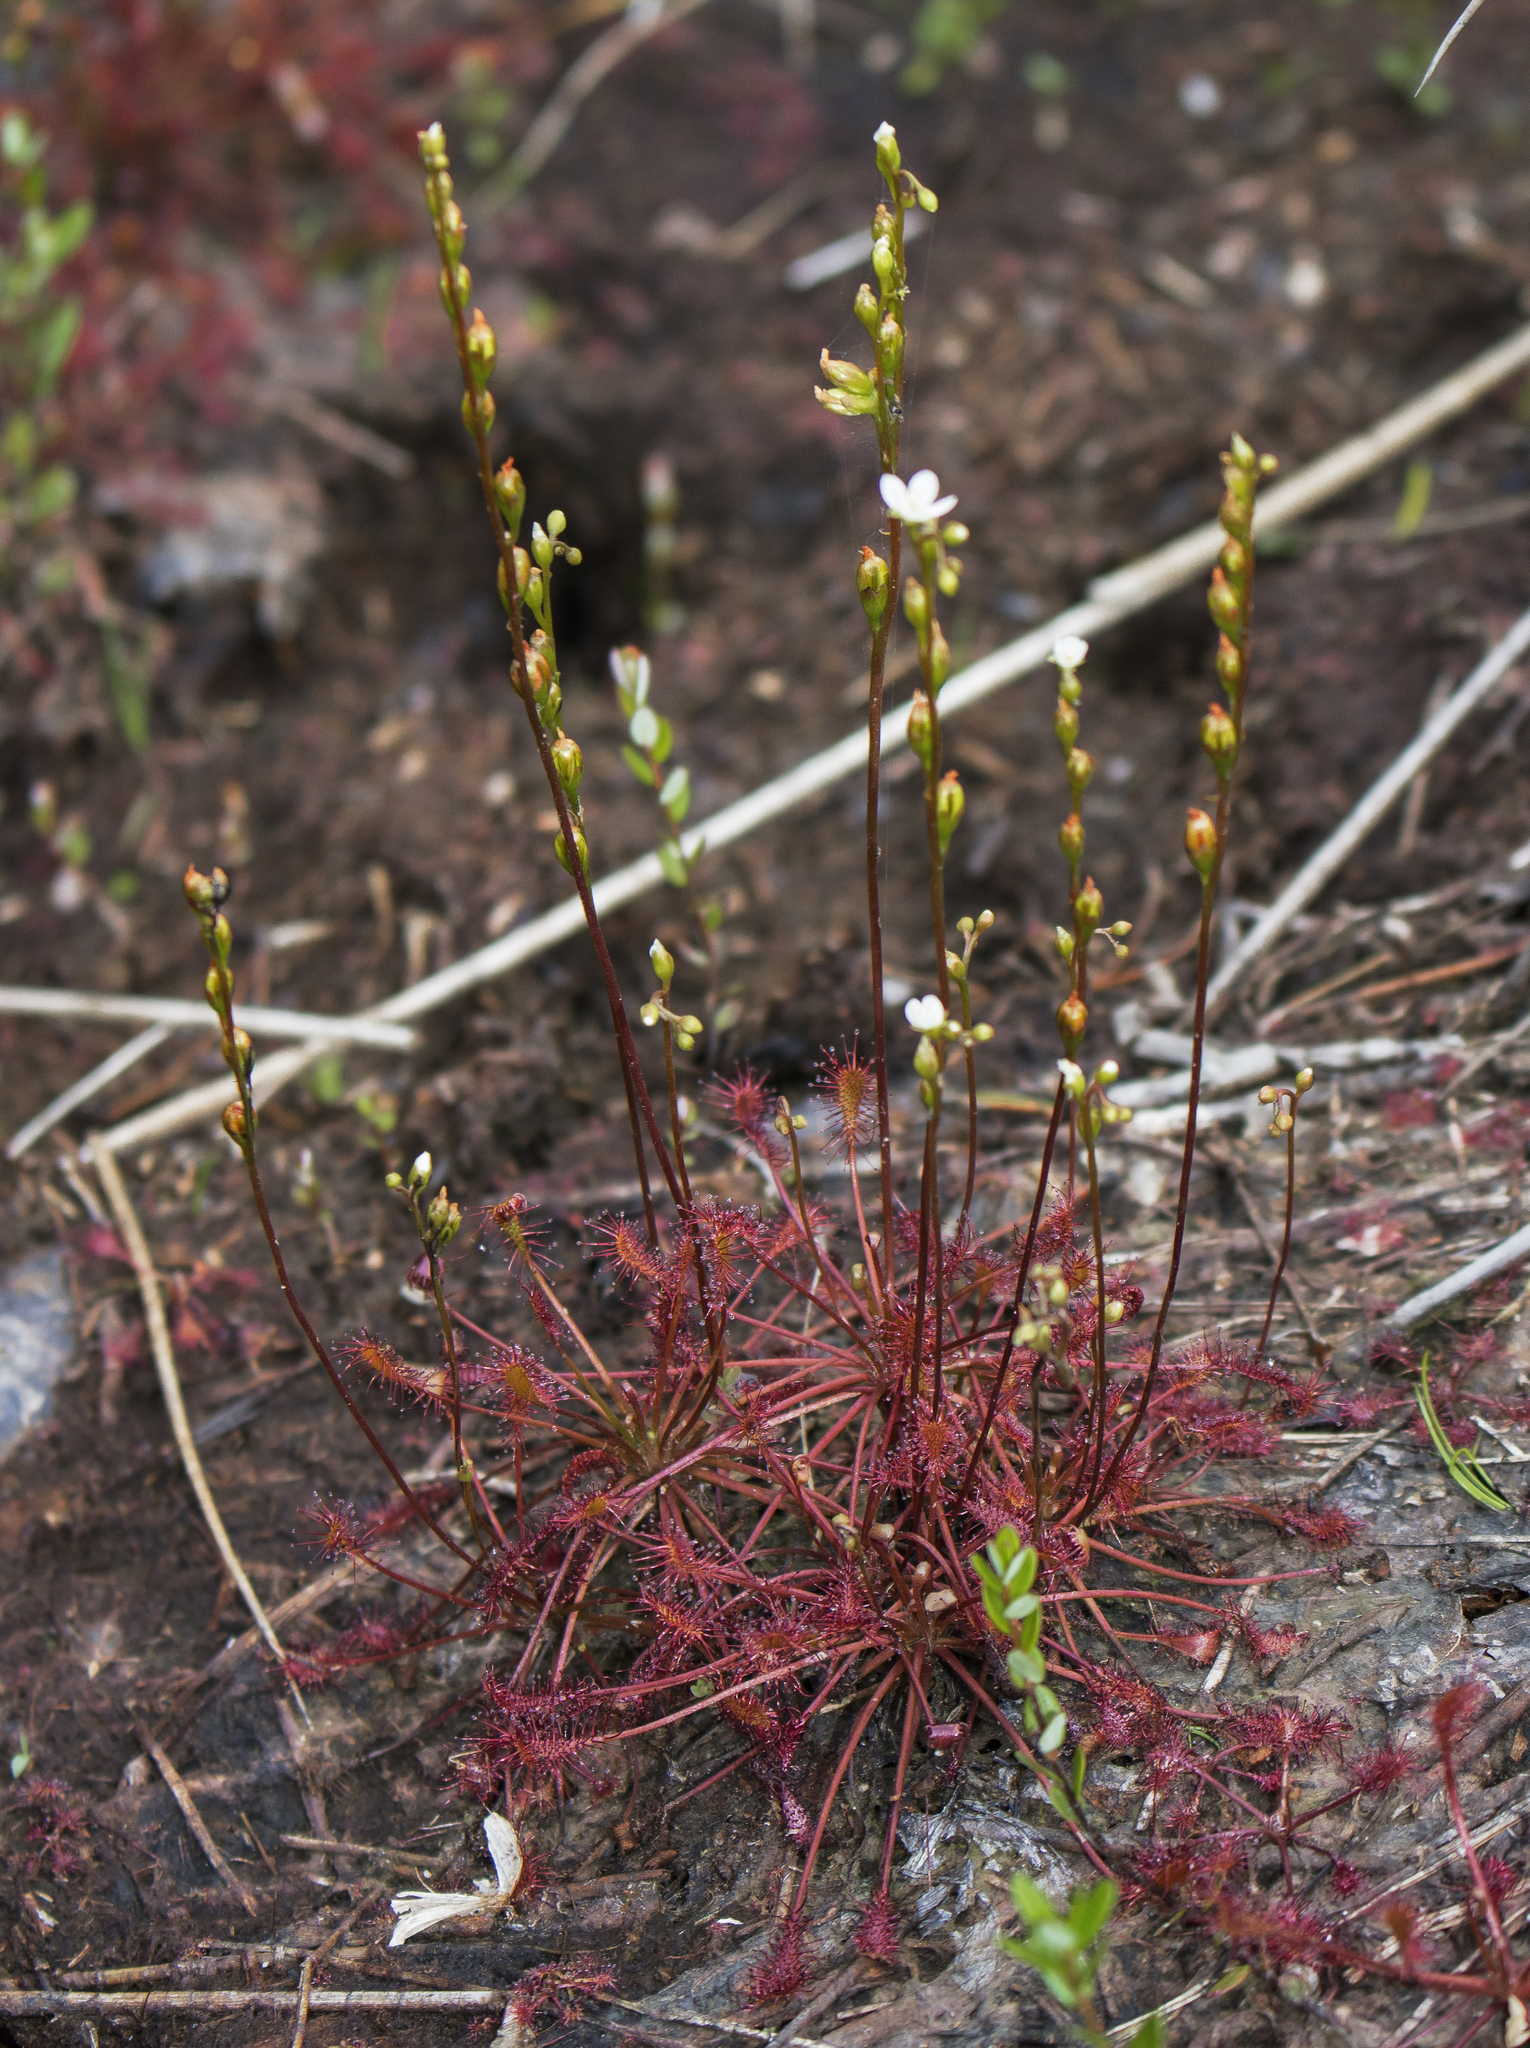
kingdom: Plantae
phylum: Tracheophyta
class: Magnoliopsida
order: Caryophyllales
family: Droseraceae
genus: Drosera
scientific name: Drosera intermedia
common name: Oblong-leaved sundew
